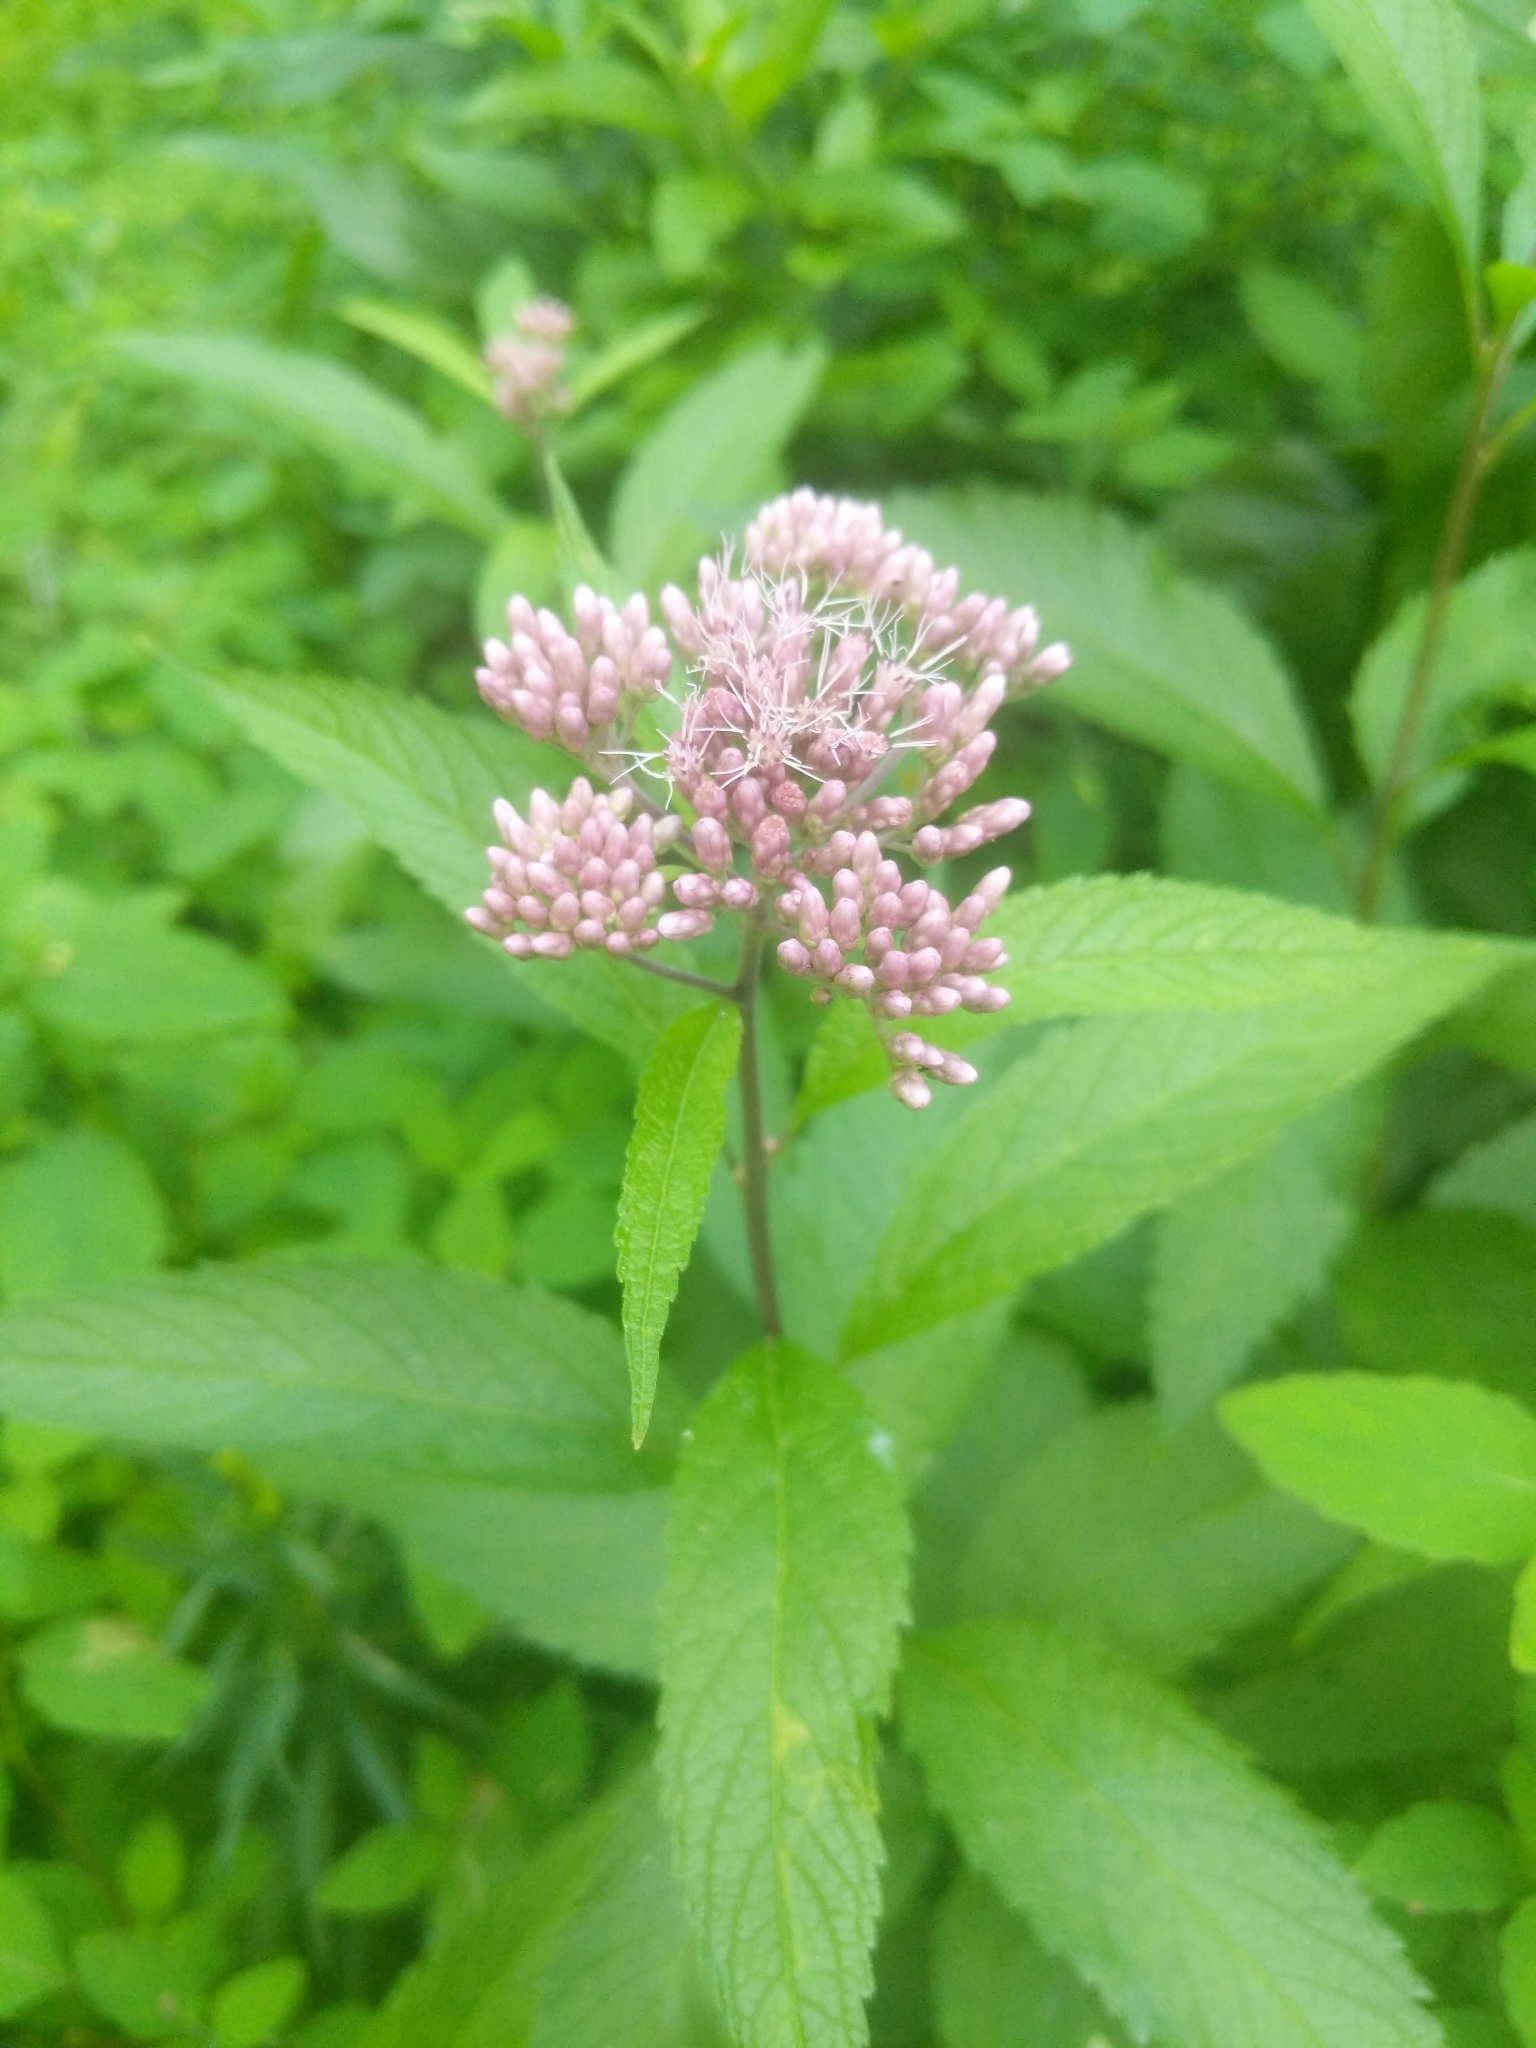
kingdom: Plantae
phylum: Tracheophyta
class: Magnoliopsida
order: Asterales
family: Asteraceae
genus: Eutrochium
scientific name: Eutrochium maculatum
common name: Spotted joe pye weed
